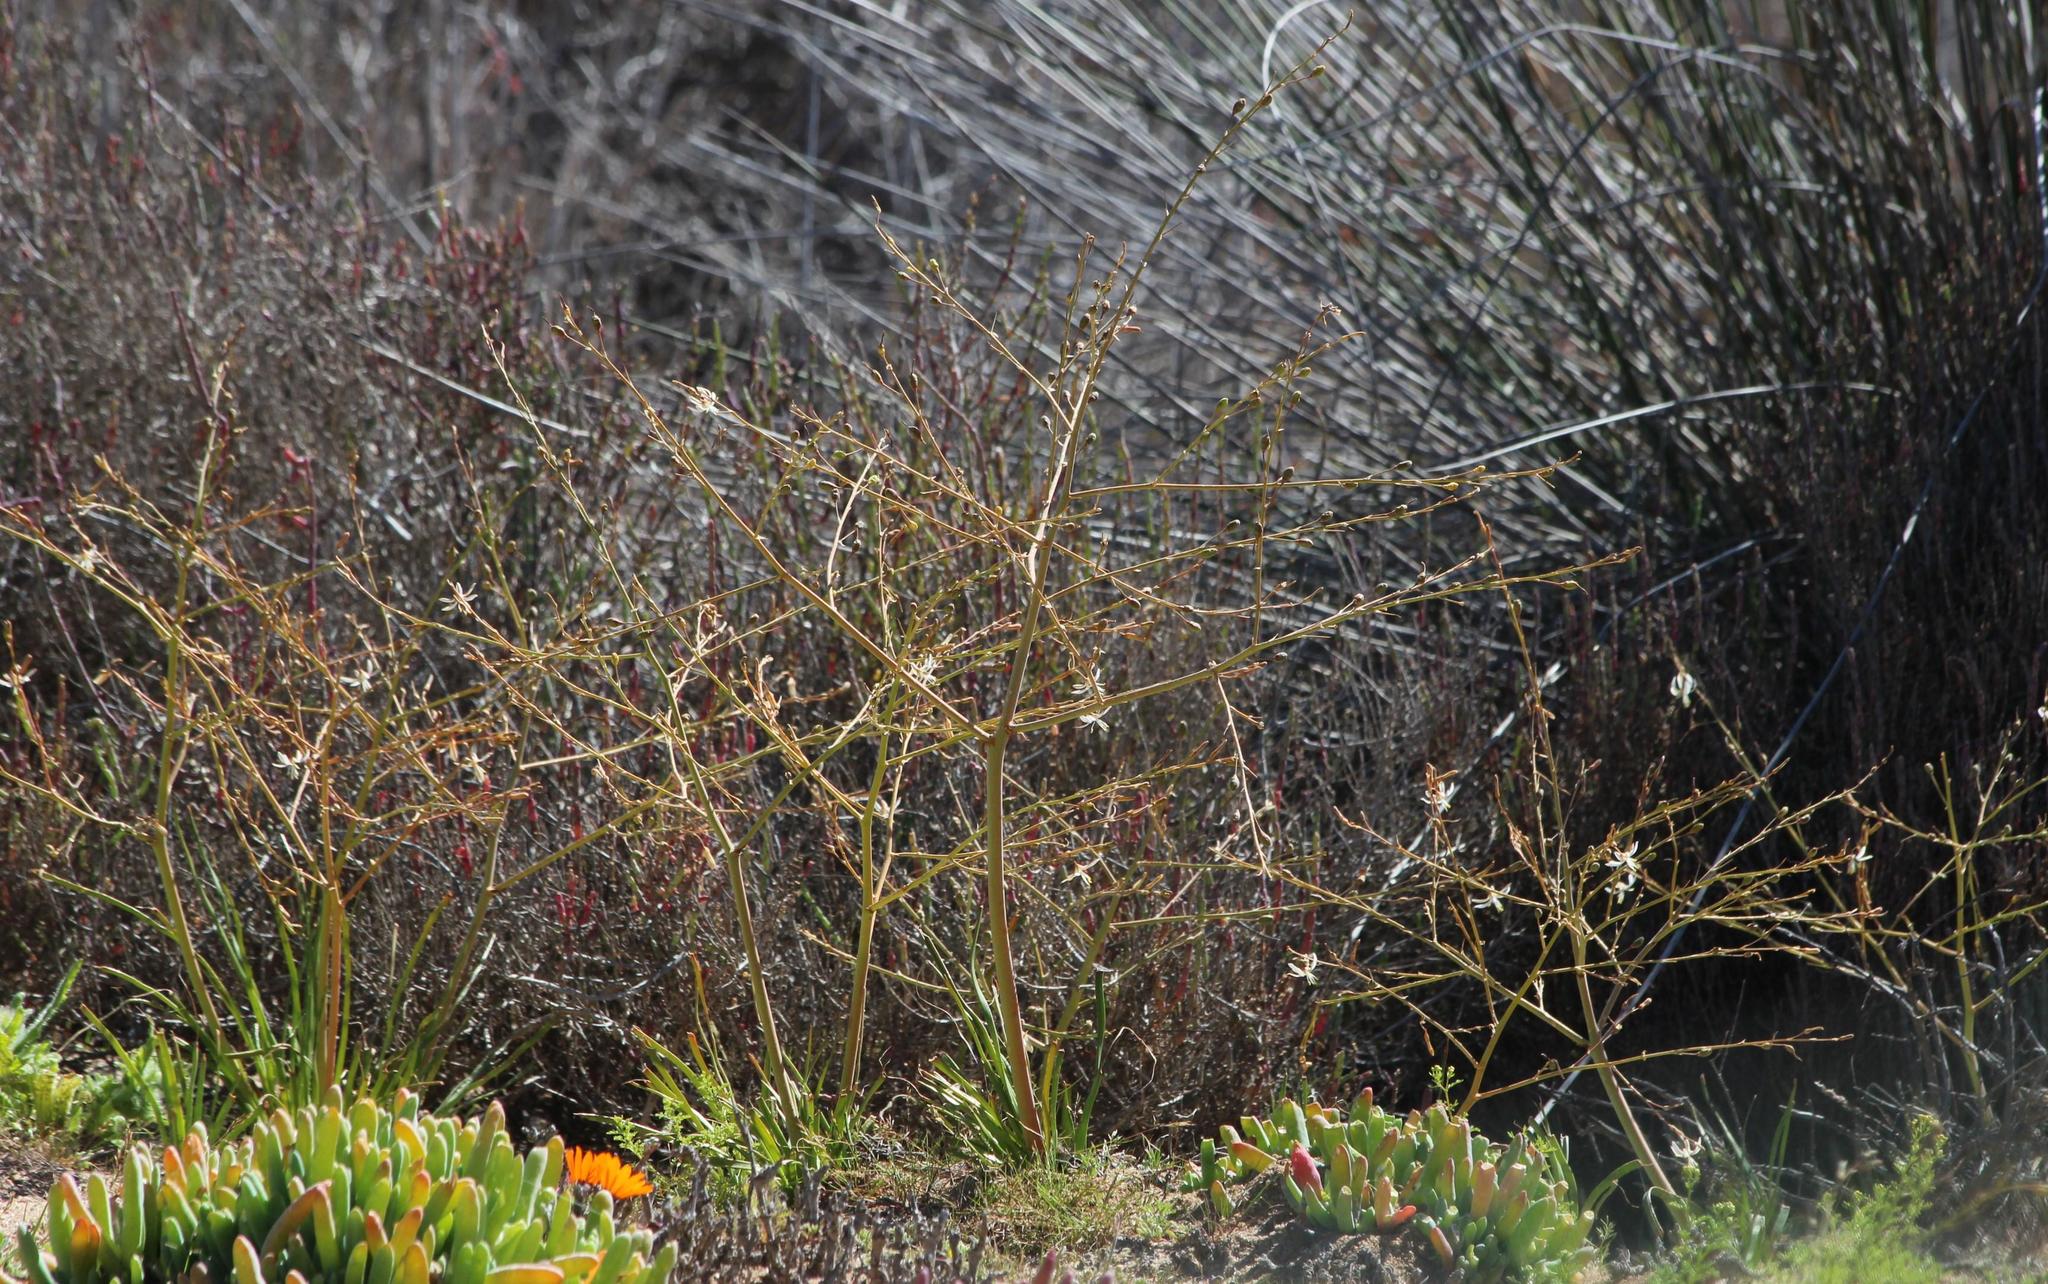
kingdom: Plantae
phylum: Tracheophyta
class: Liliopsida
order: Asparagales
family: Asphodelaceae
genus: Trachyandra
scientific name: Trachyandra divaricata
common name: Dune onionweed
